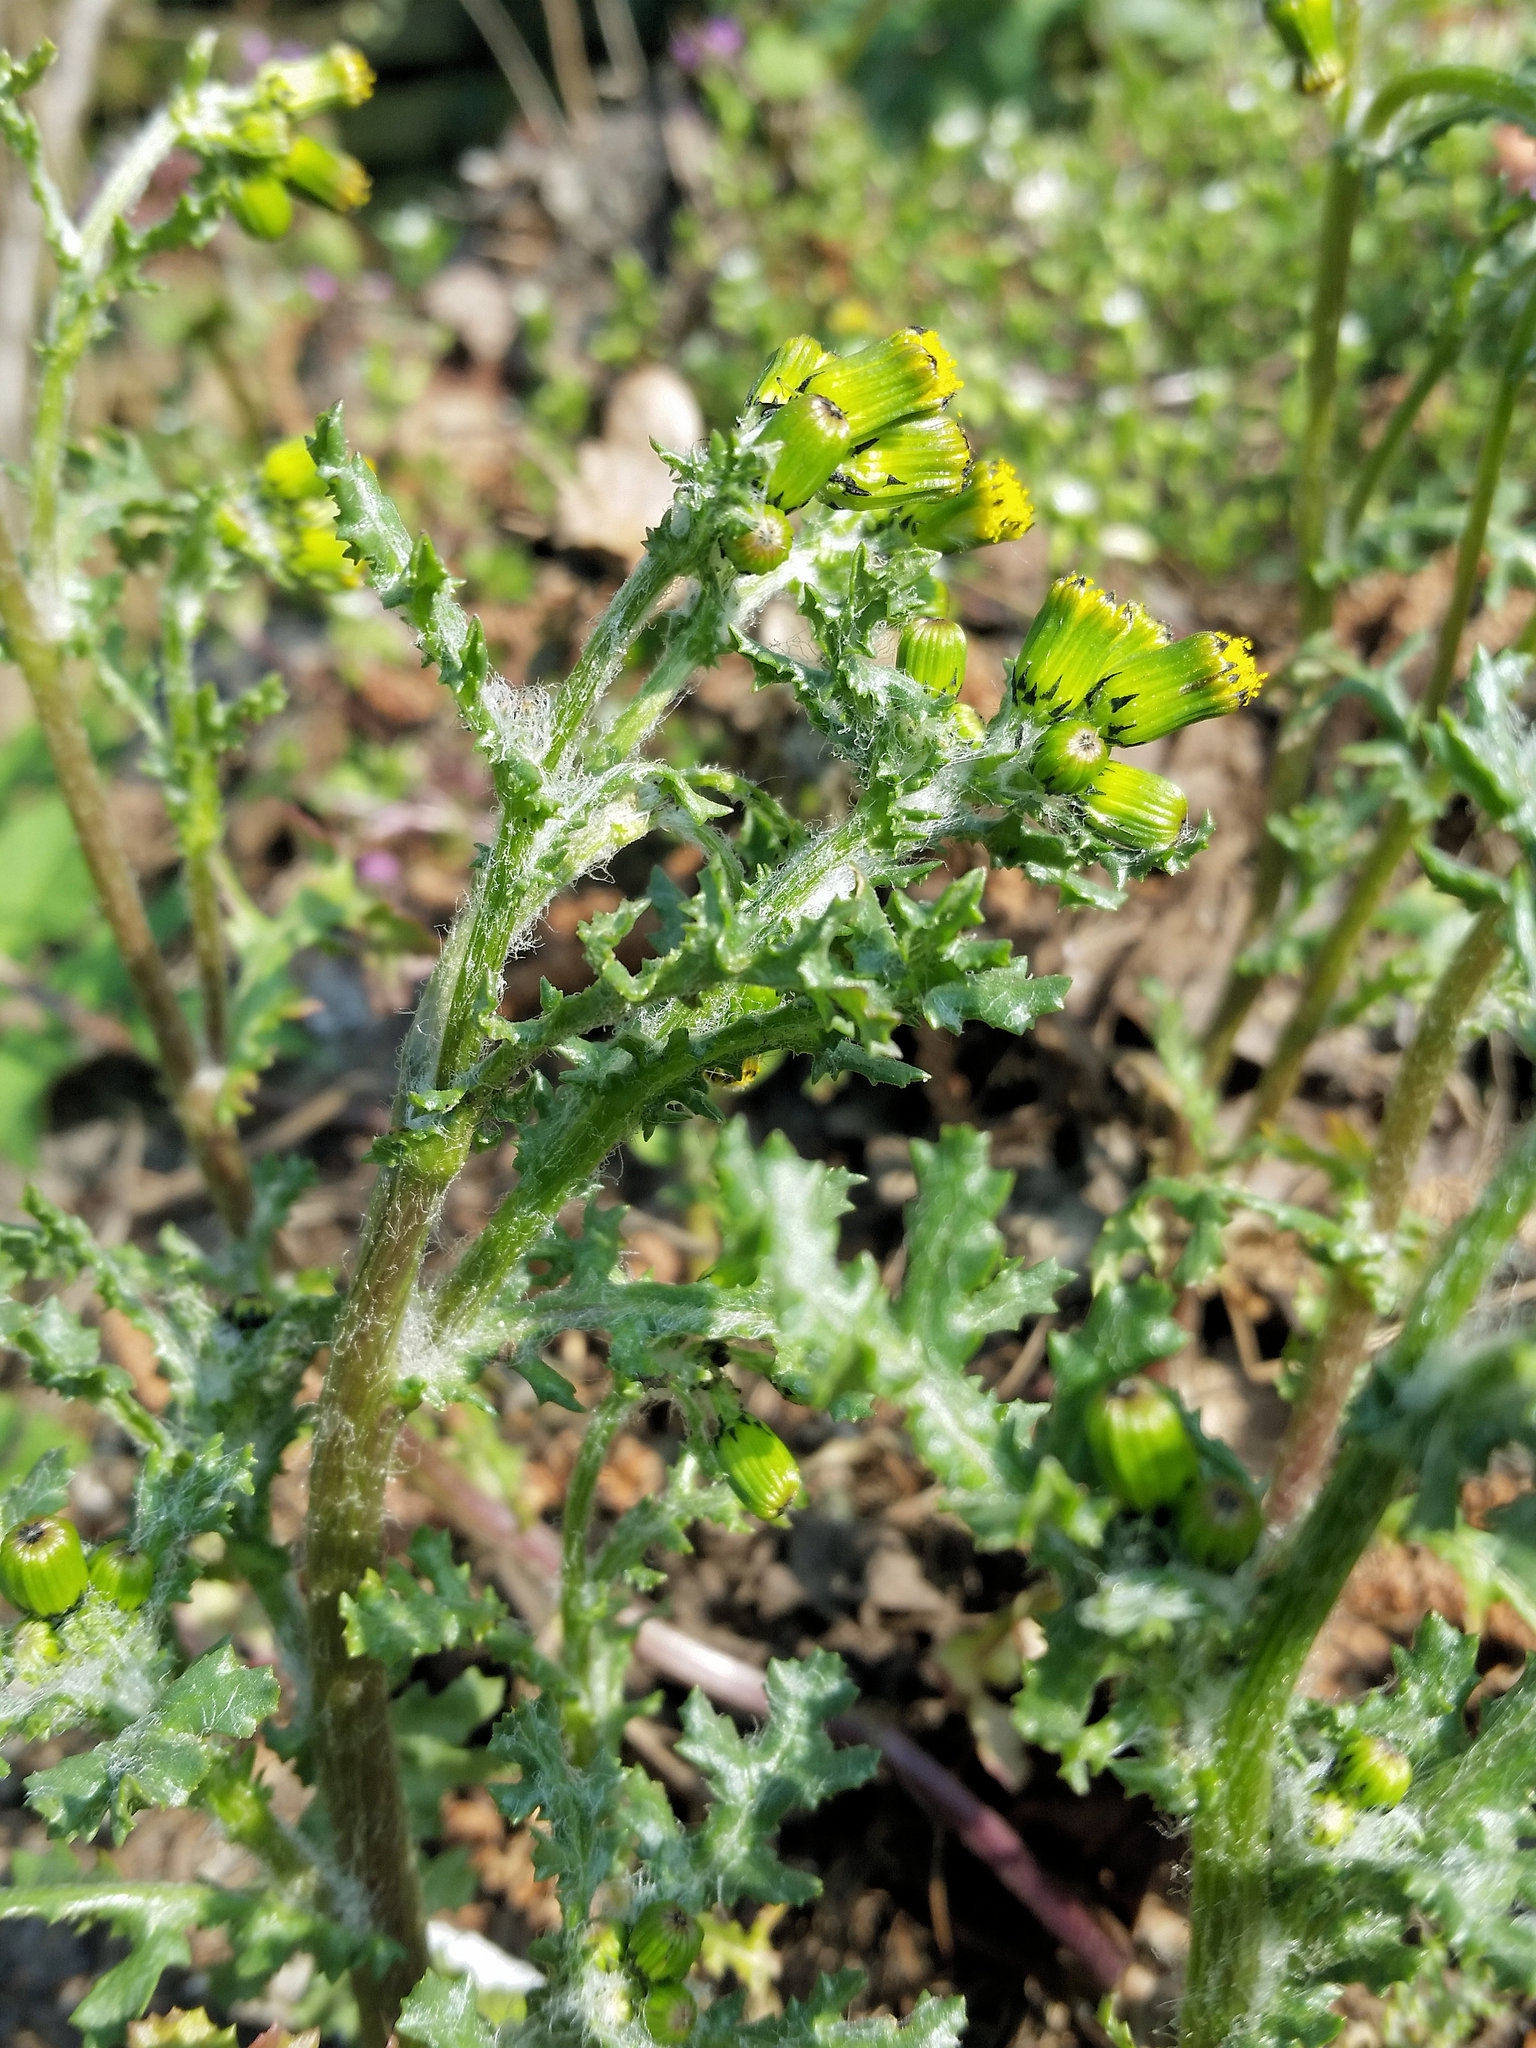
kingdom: Plantae
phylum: Tracheophyta
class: Magnoliopsida
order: Asterales
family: Asteraceae
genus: Senecio
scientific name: Senecio vulgaris
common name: Old-man-in-the-spring
